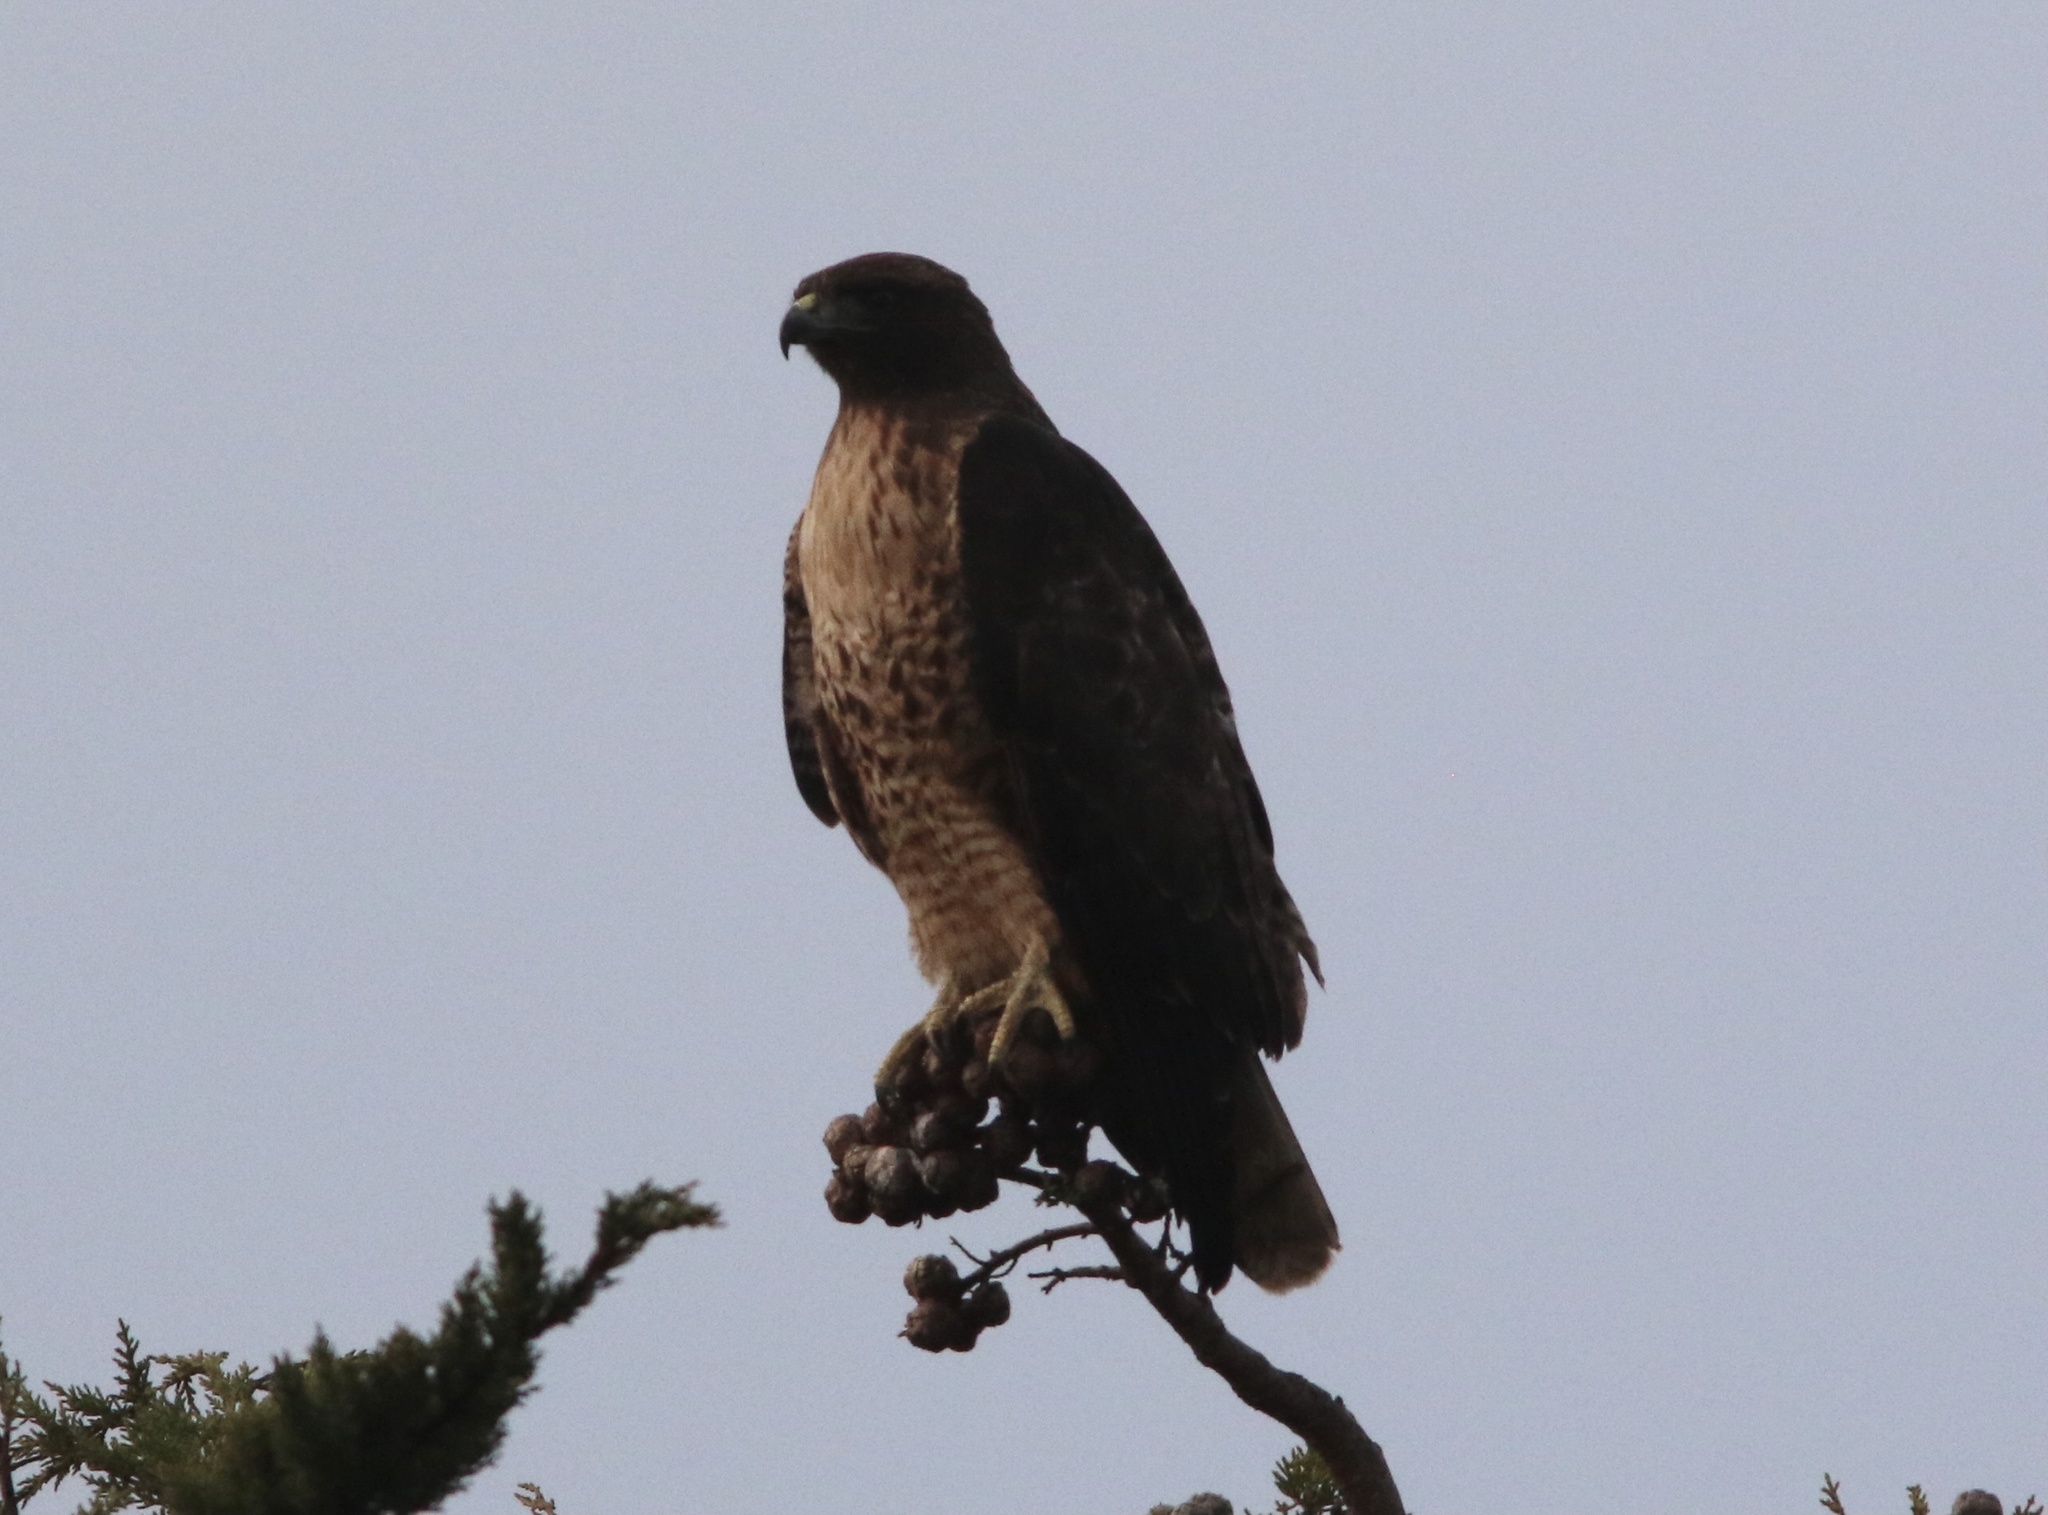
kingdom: Animalia
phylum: Chordata
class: Aves
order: Accipitriformes
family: Accipitridae
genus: Buteo
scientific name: Buteo jamaicensis
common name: Red-tailed hawk
